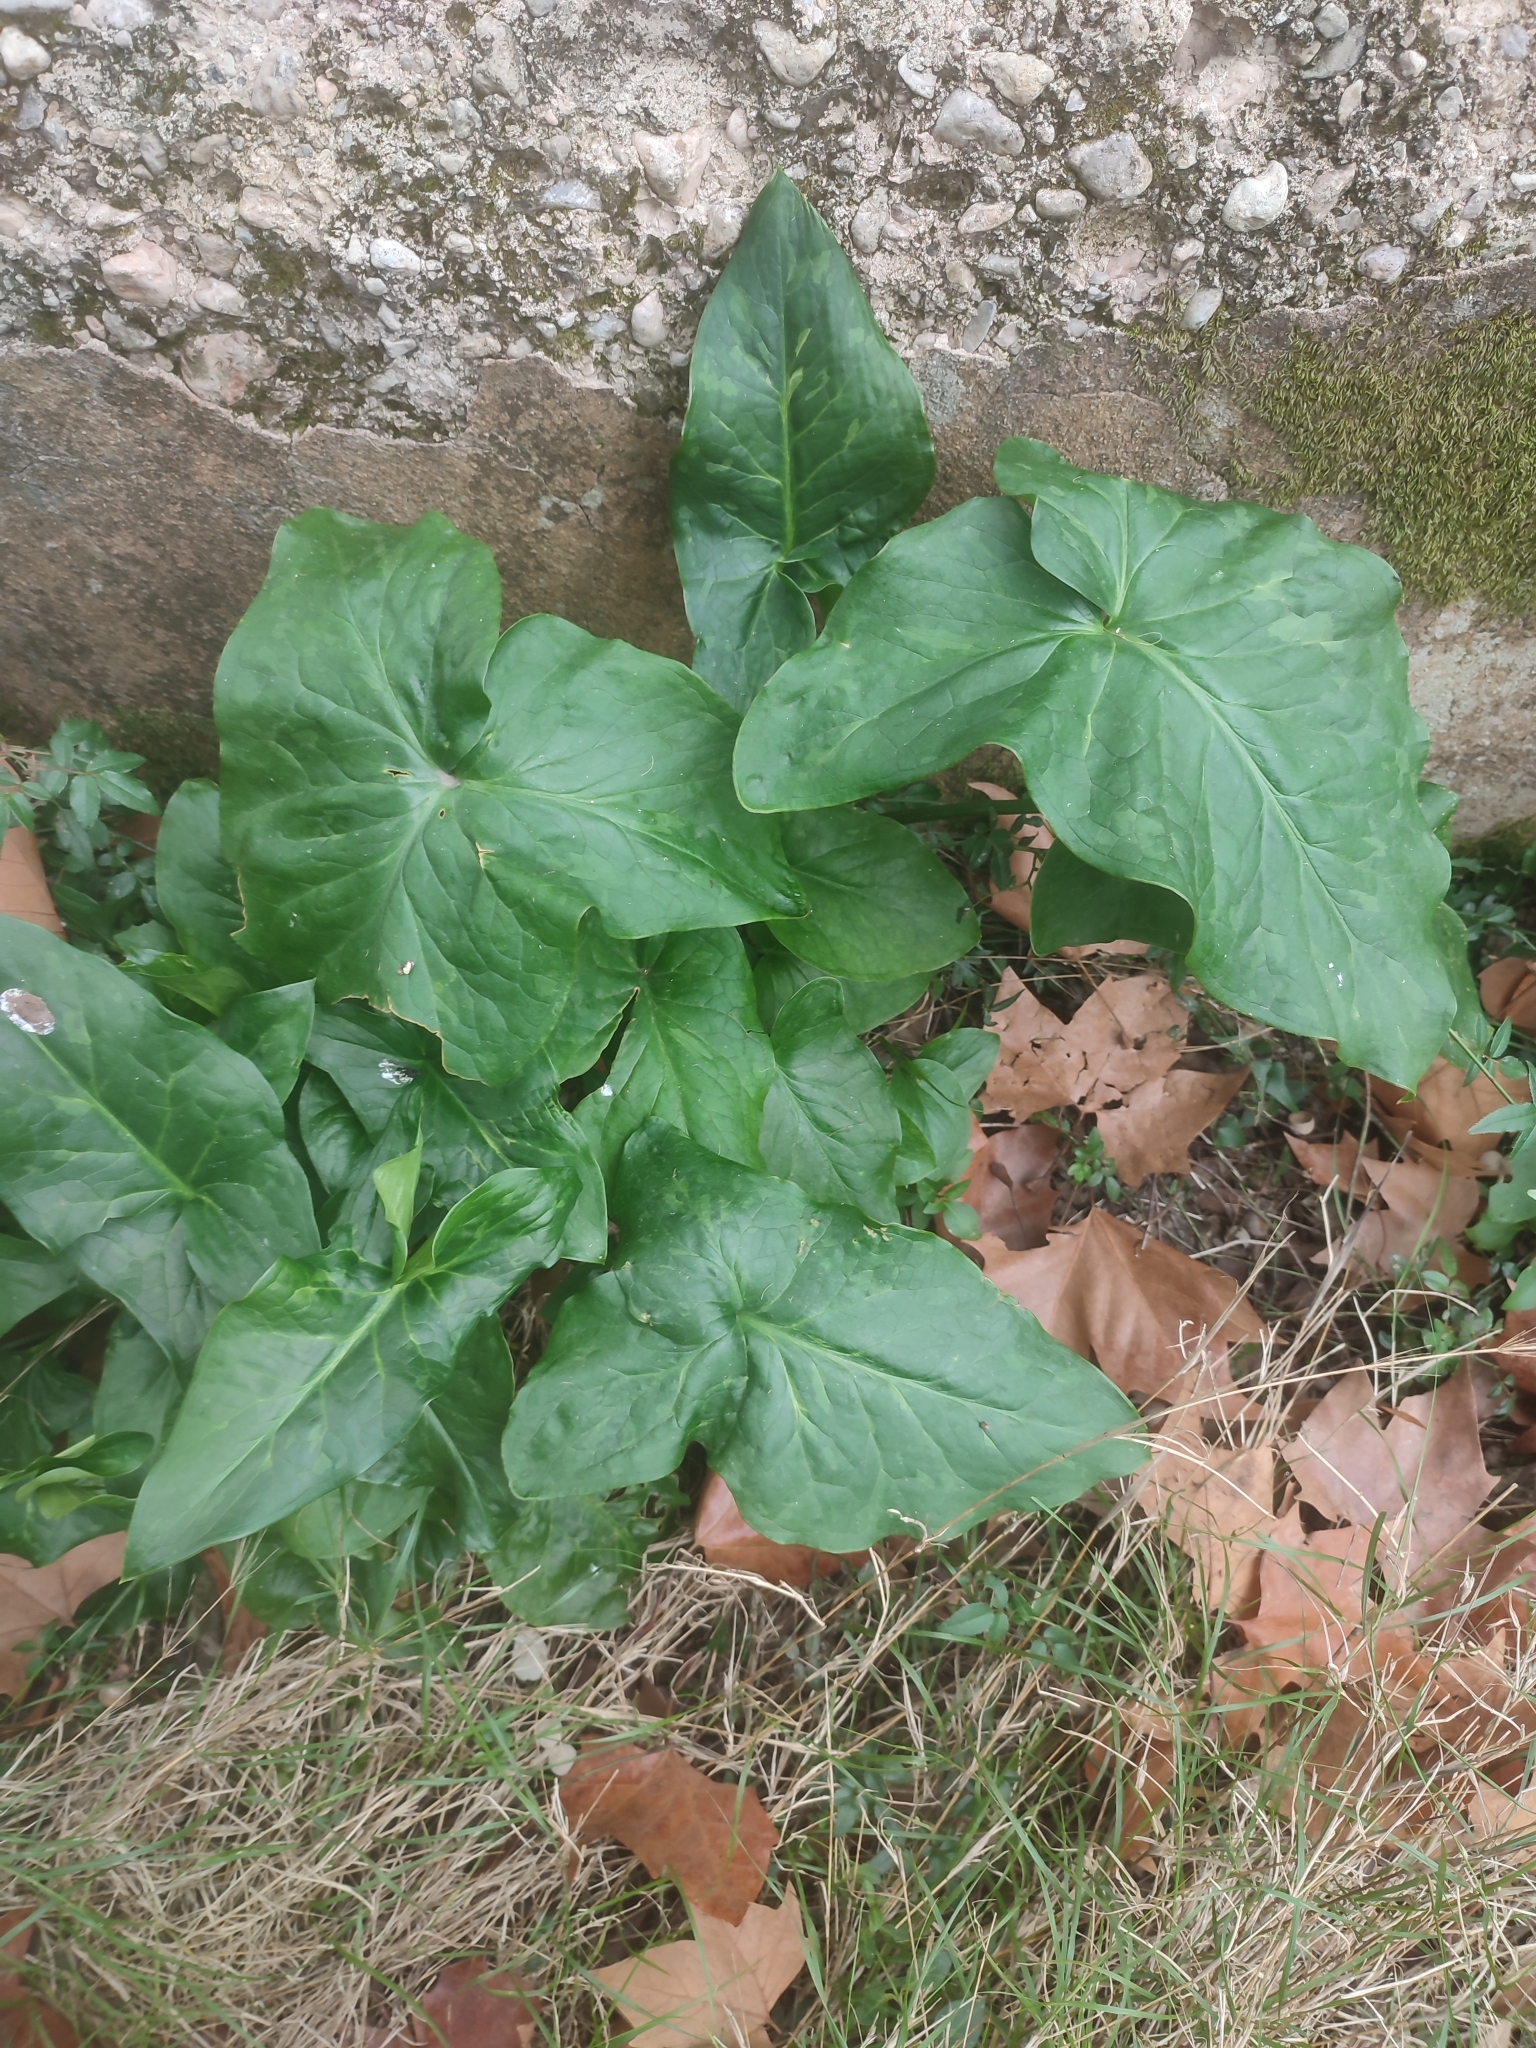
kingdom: Plantae
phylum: Tracheophyta
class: Liliopsida
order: Alismatales
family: Araceae
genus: Arum
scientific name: Arum italicum
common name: Italian lords-and-ladies
